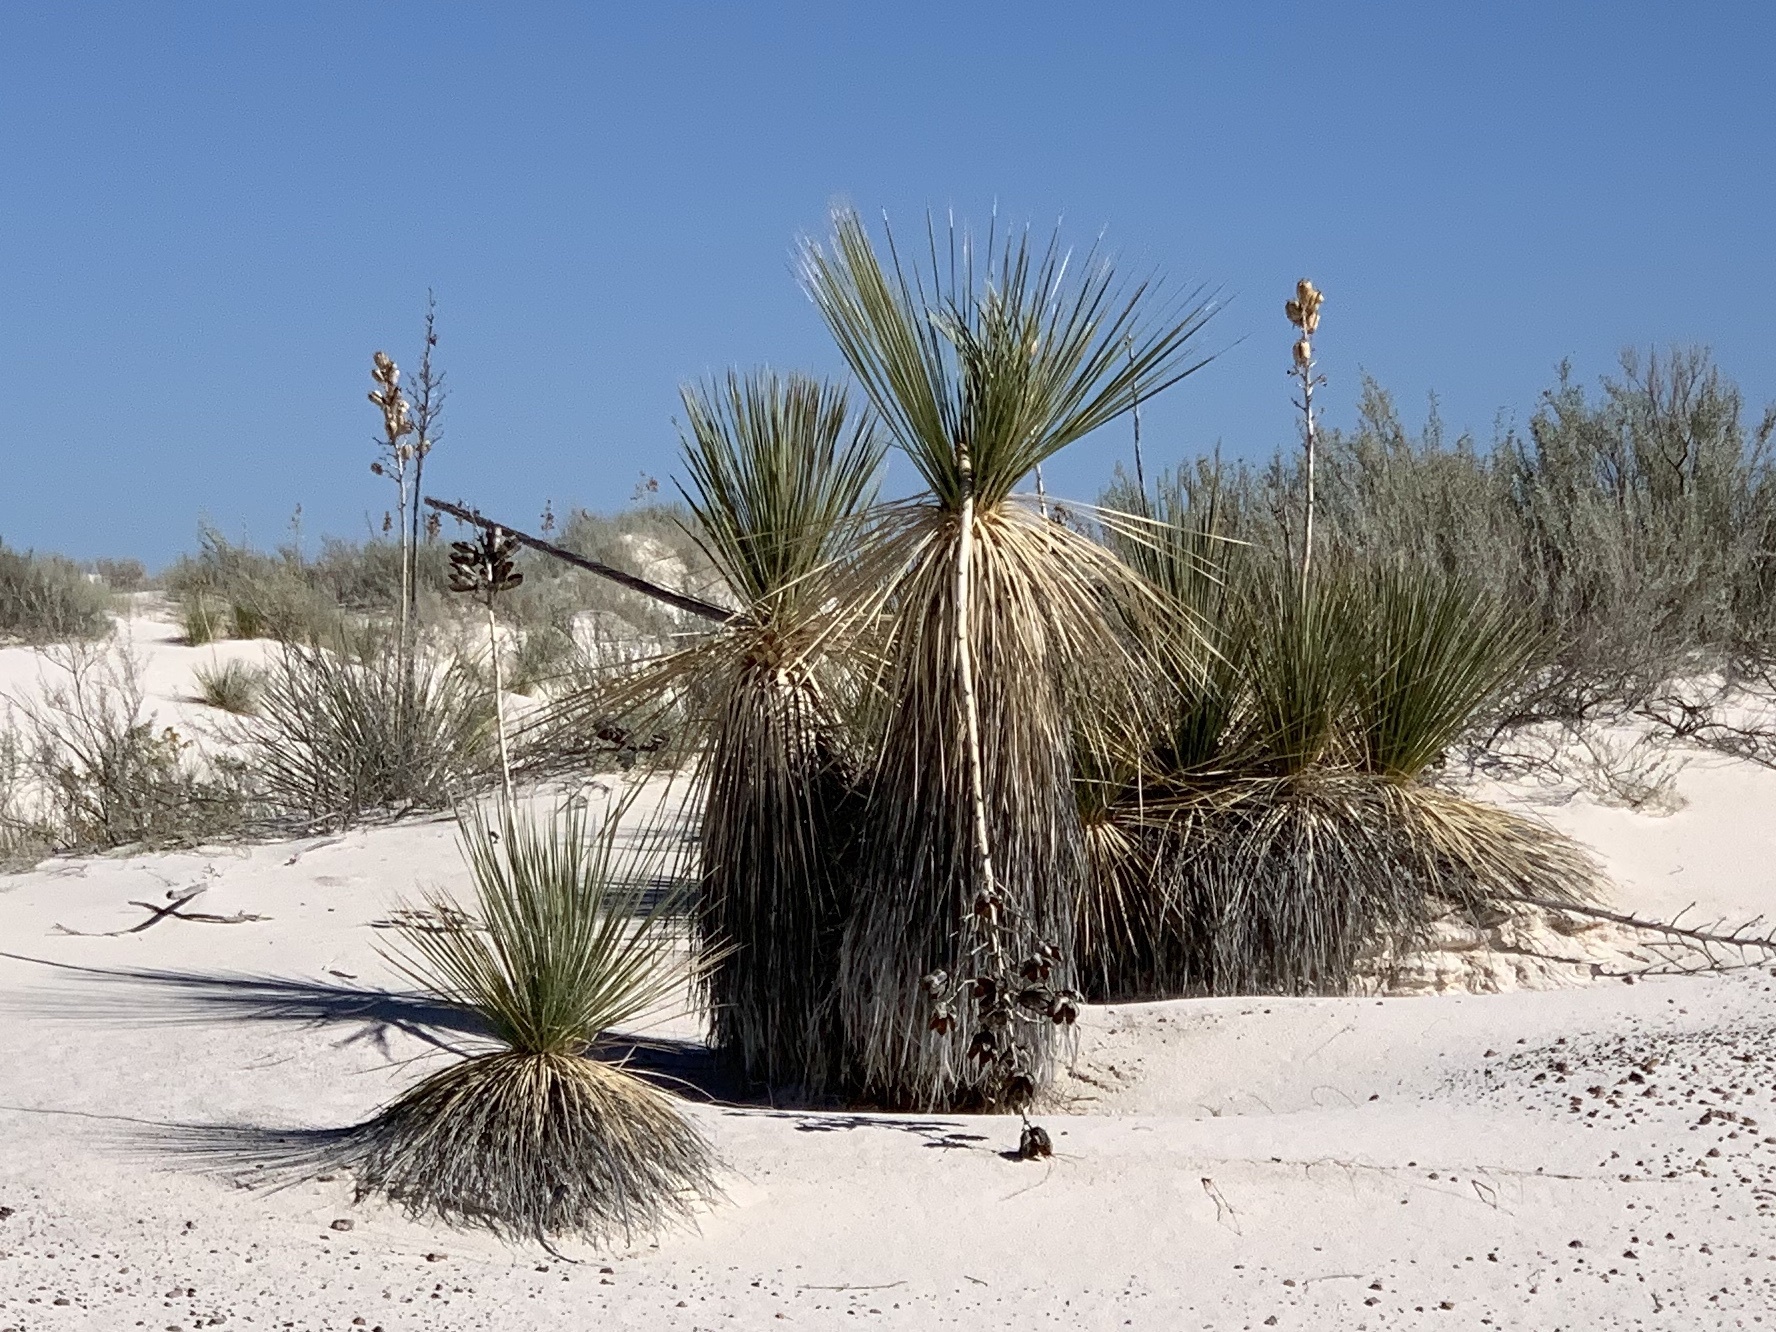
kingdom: Plantae
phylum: Tracheophyta
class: Liliopsida
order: Asparagales
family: Asparagaceae
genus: Yucca
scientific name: Yucca elata
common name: Palmella
